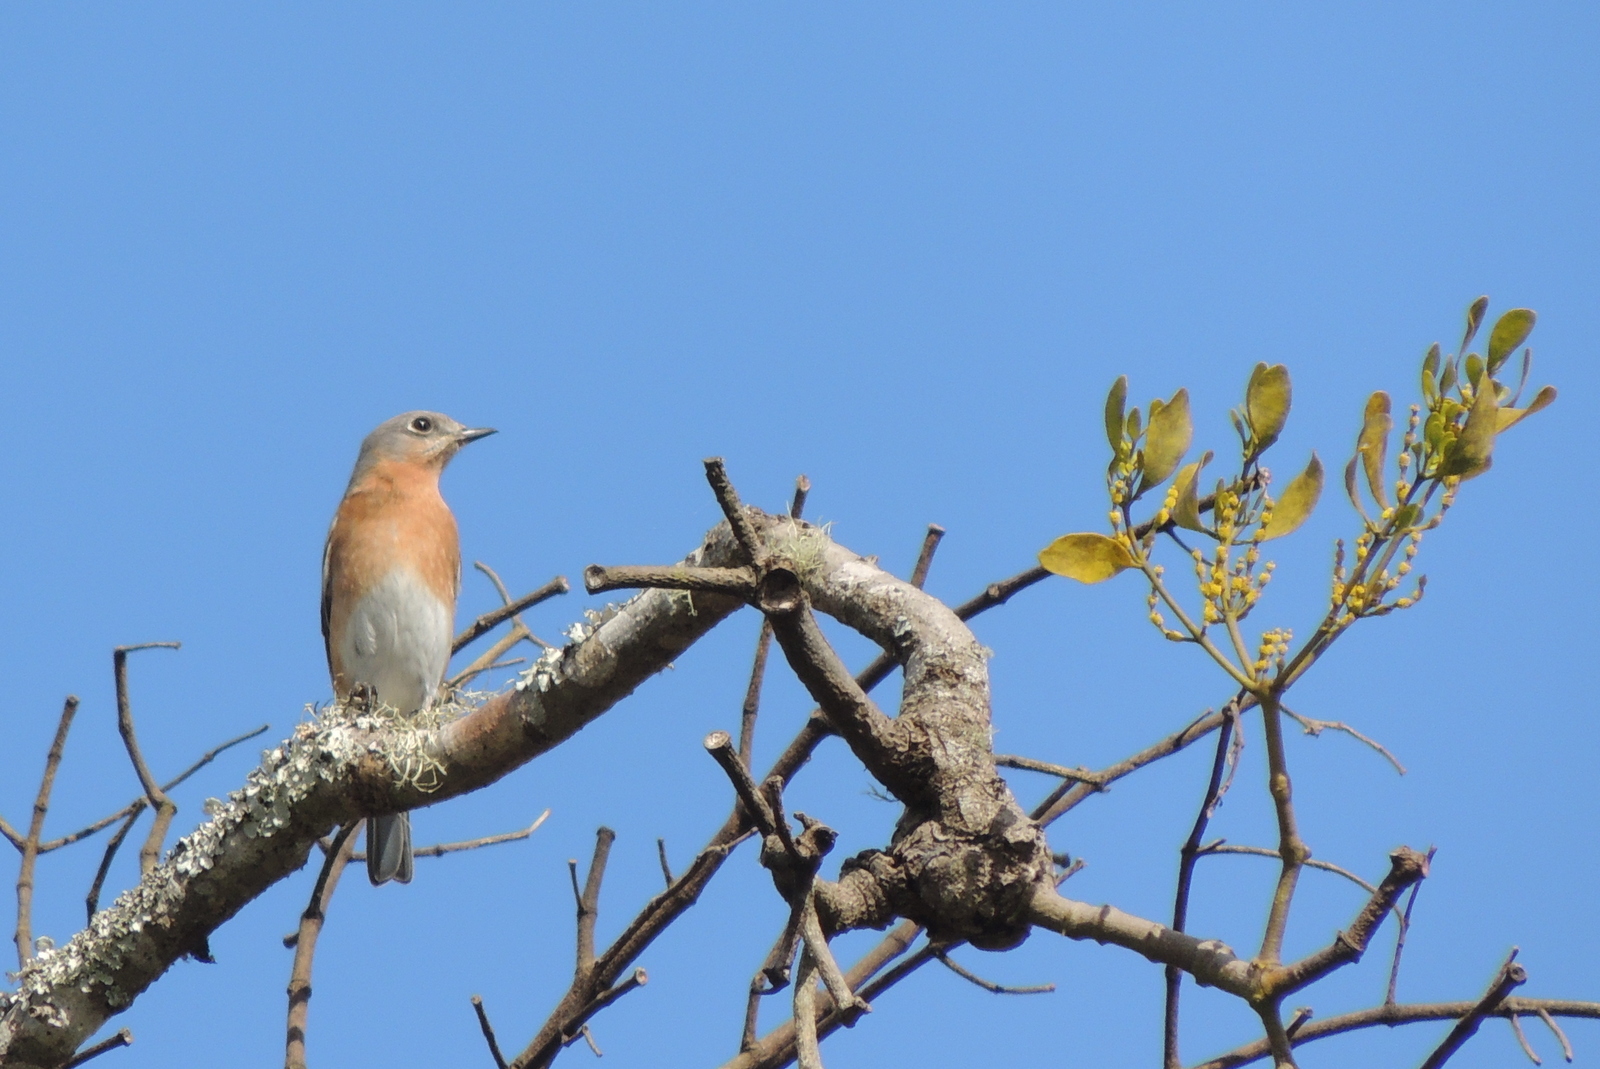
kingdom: Animalia
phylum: Chordata
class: Aves
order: Passeriformes
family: Turdidae
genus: Sialia
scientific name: Sialia sialis
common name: Eastern bluebird
